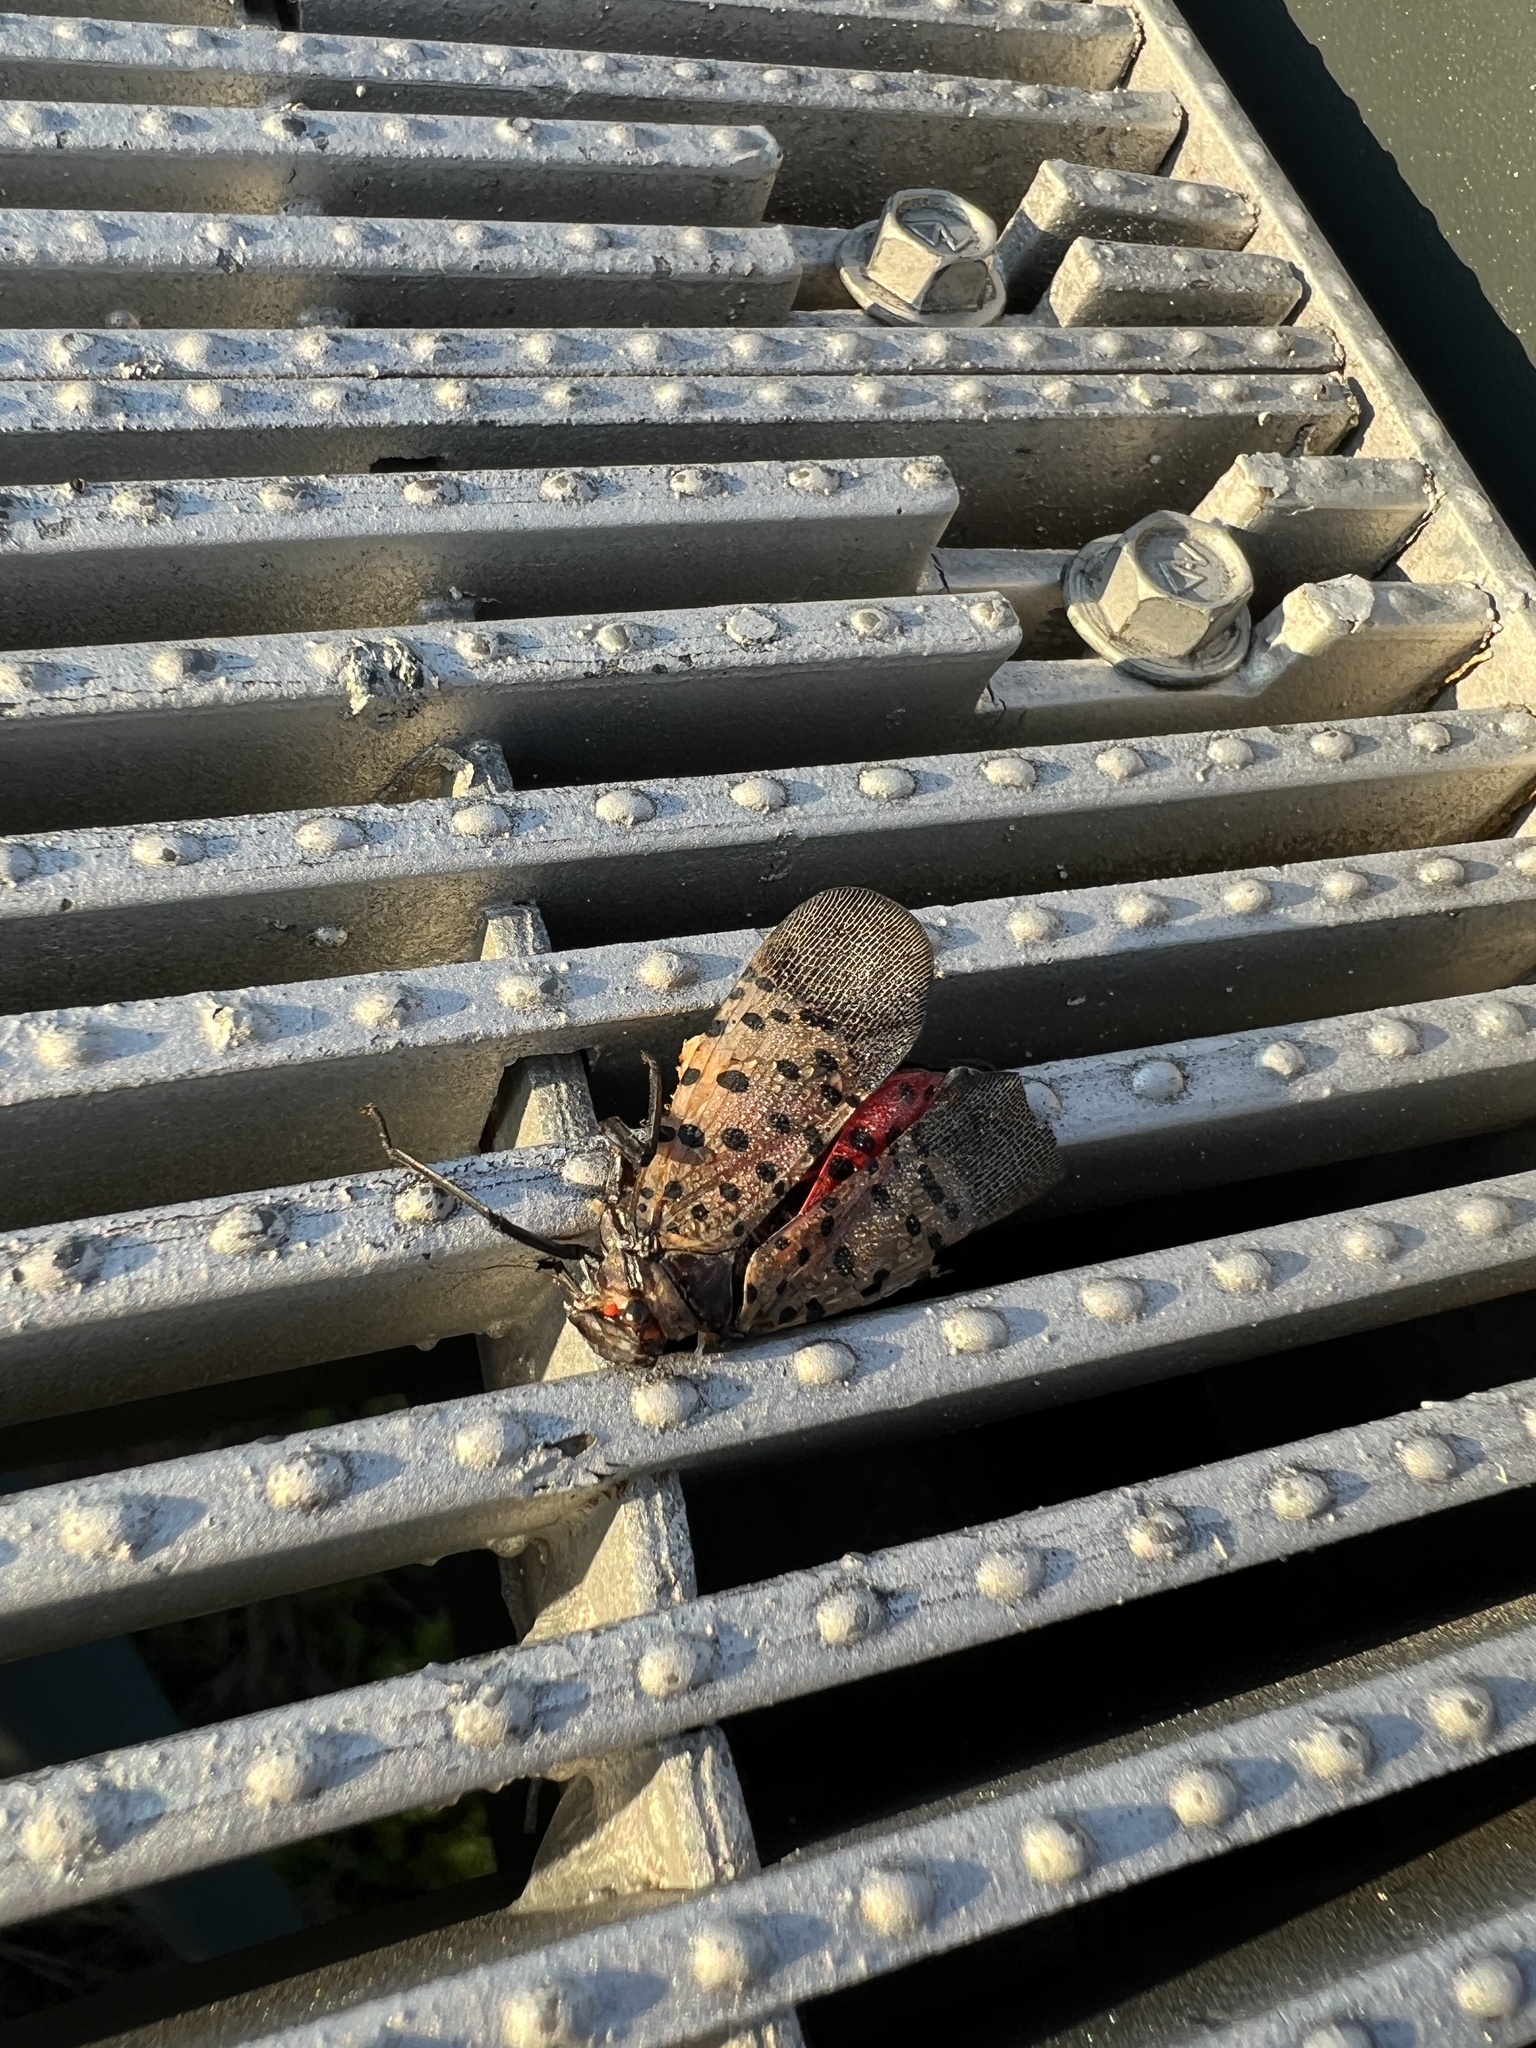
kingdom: Animalia
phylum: Arthropoda
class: Insecta
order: Hemiptera
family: Fulgoridae
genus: Lycorma
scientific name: Lycorma delicatula
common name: Spotted lanternfly
